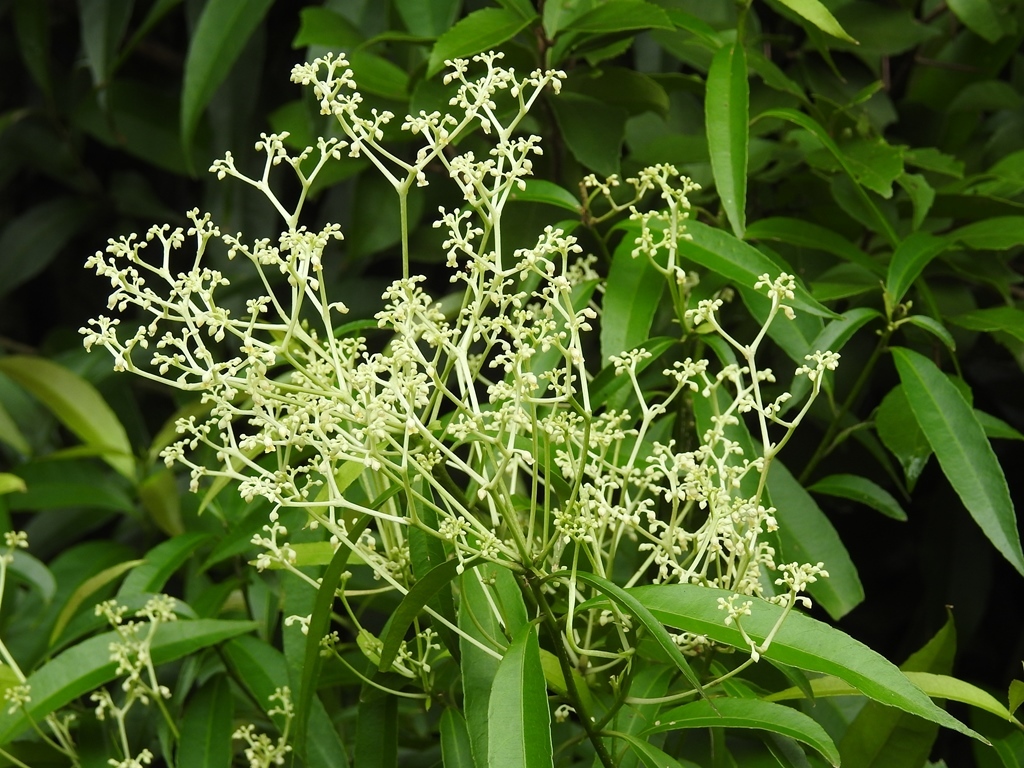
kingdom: Plantae
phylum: Tracheophyta
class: Magnoliopsida
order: Malpighiales
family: Violaceae
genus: Orthion
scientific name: Orthion malpighiifolium
